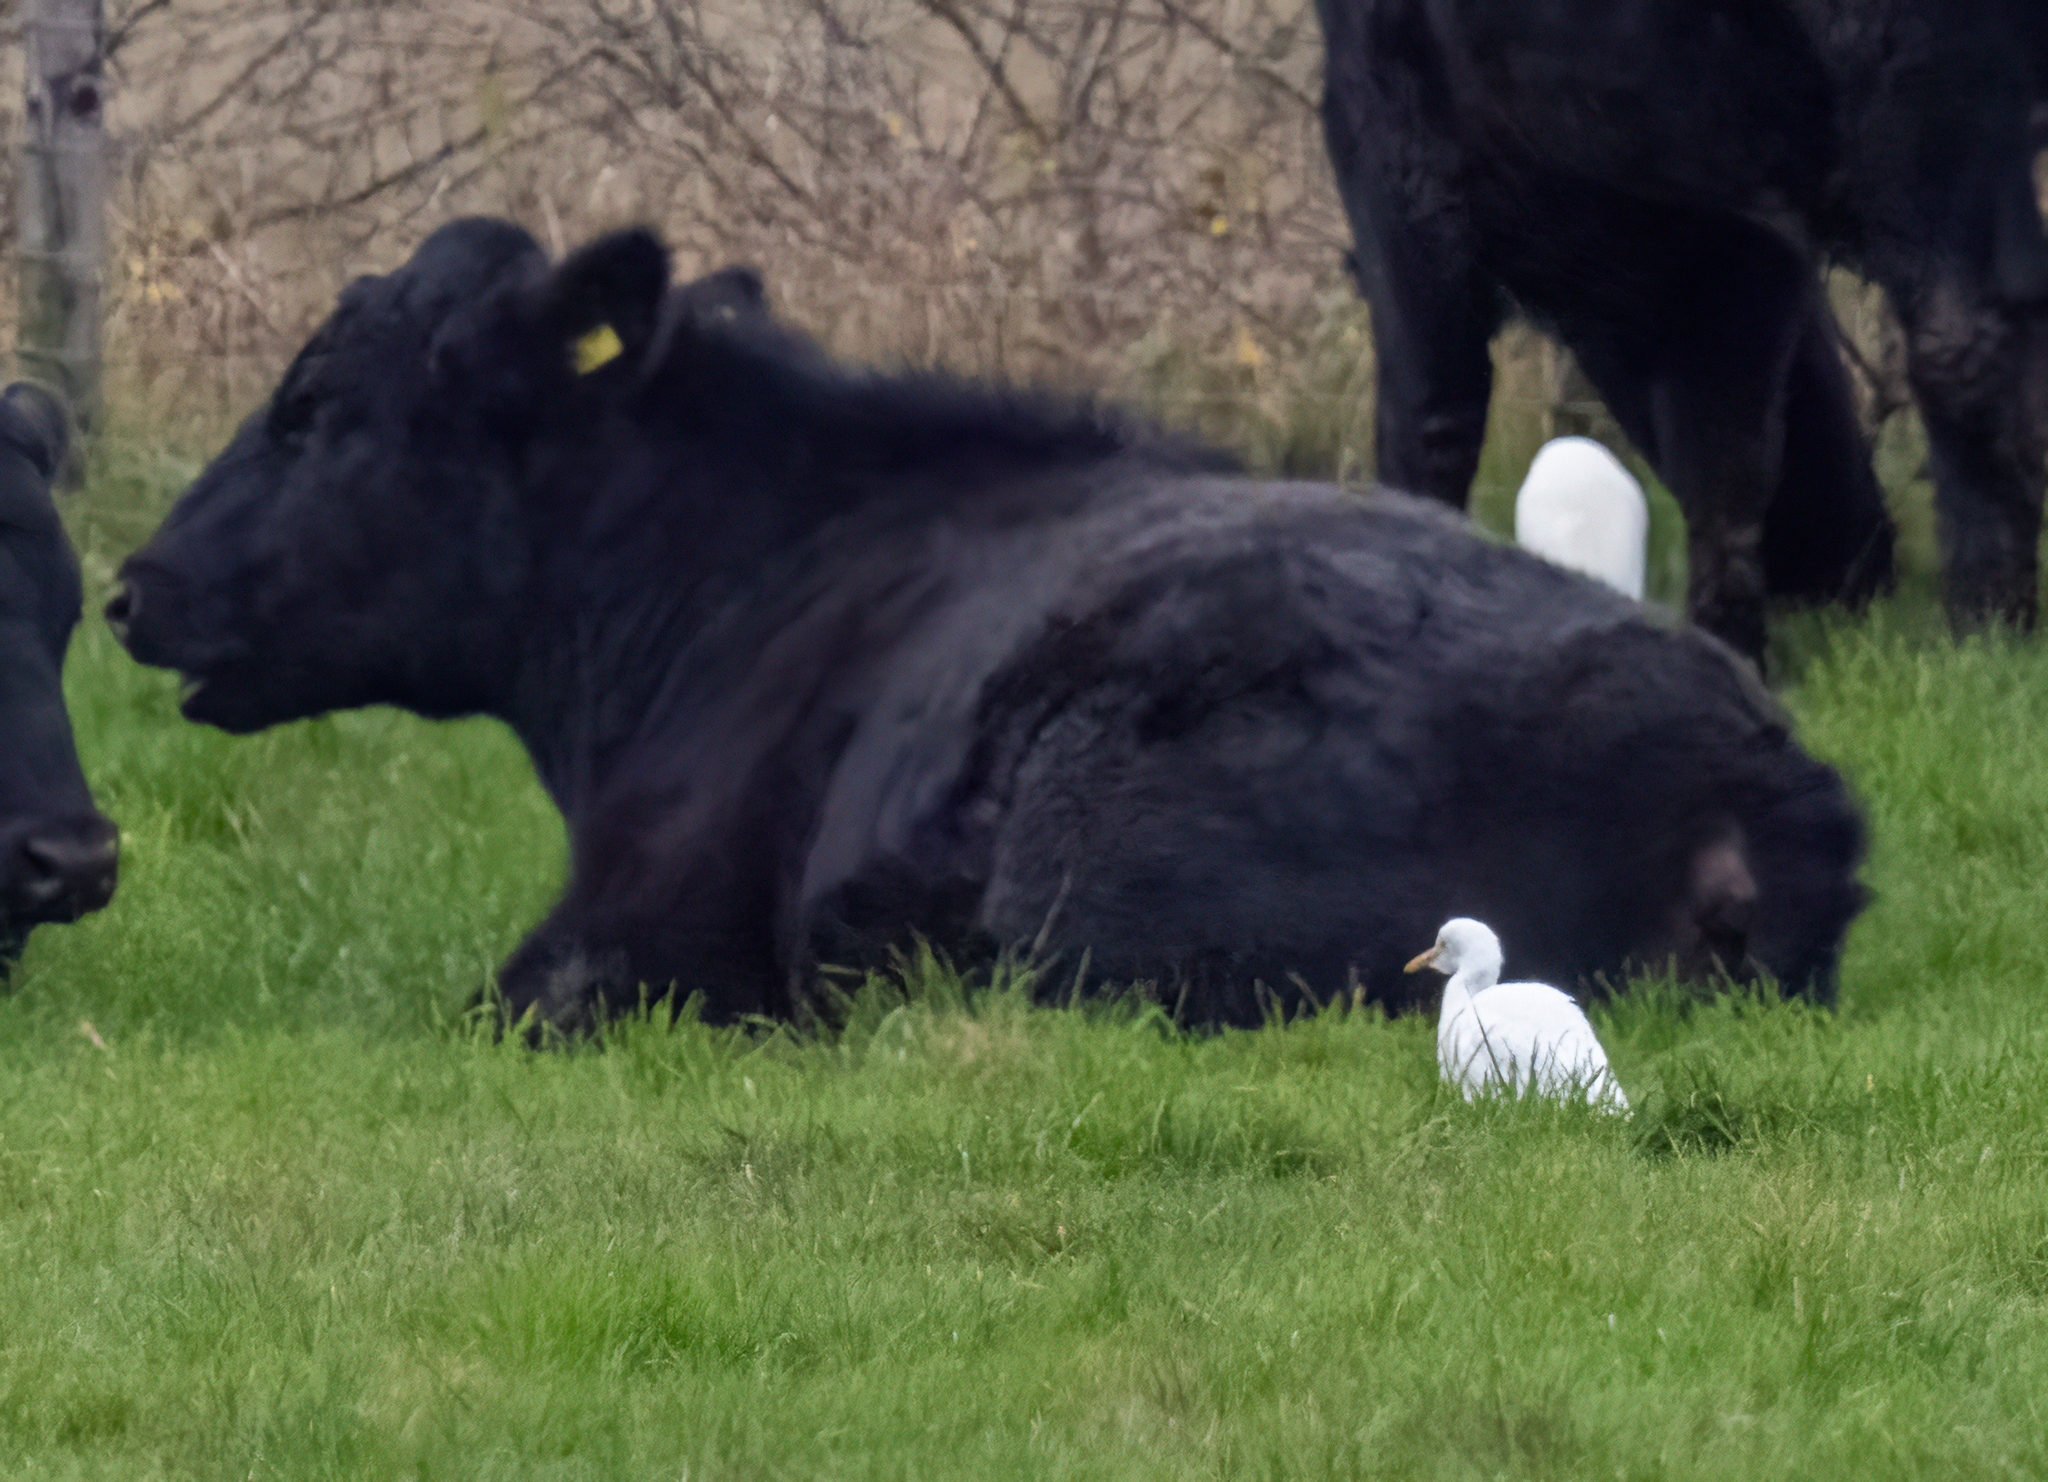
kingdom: Animalia
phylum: Chordata
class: Aves
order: Pelecaniformes
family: Ardeidae
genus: Bubulcus
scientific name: Bubulcus ibis
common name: Cattle egret
